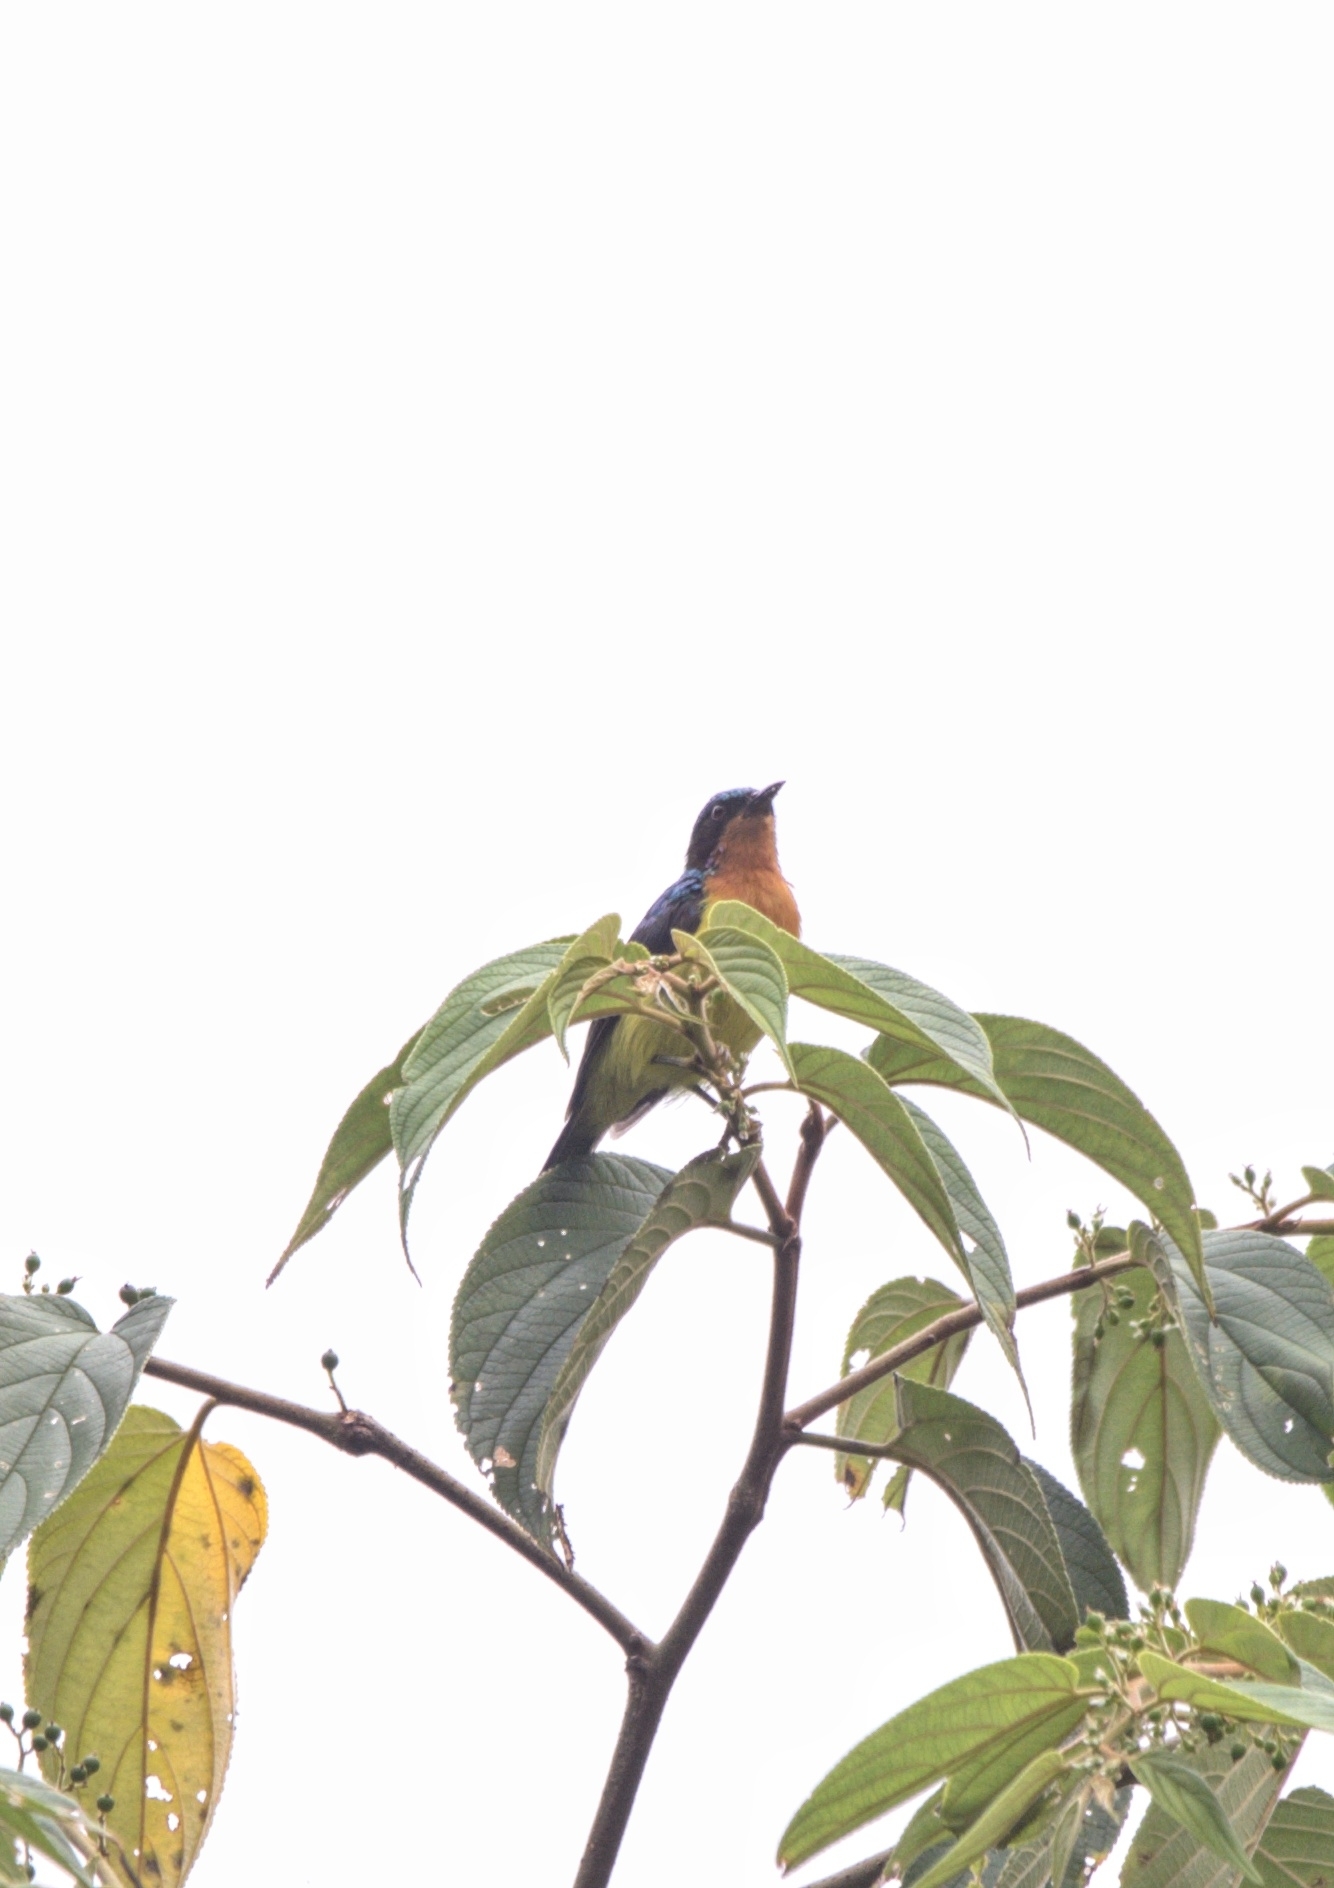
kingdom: Animalia
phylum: Chordata
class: Aves
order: Passeriformes
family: Nectariniidae
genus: Chalcoparia
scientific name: Chalcoparia singalensis
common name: Ruby-cheeked sunbird
